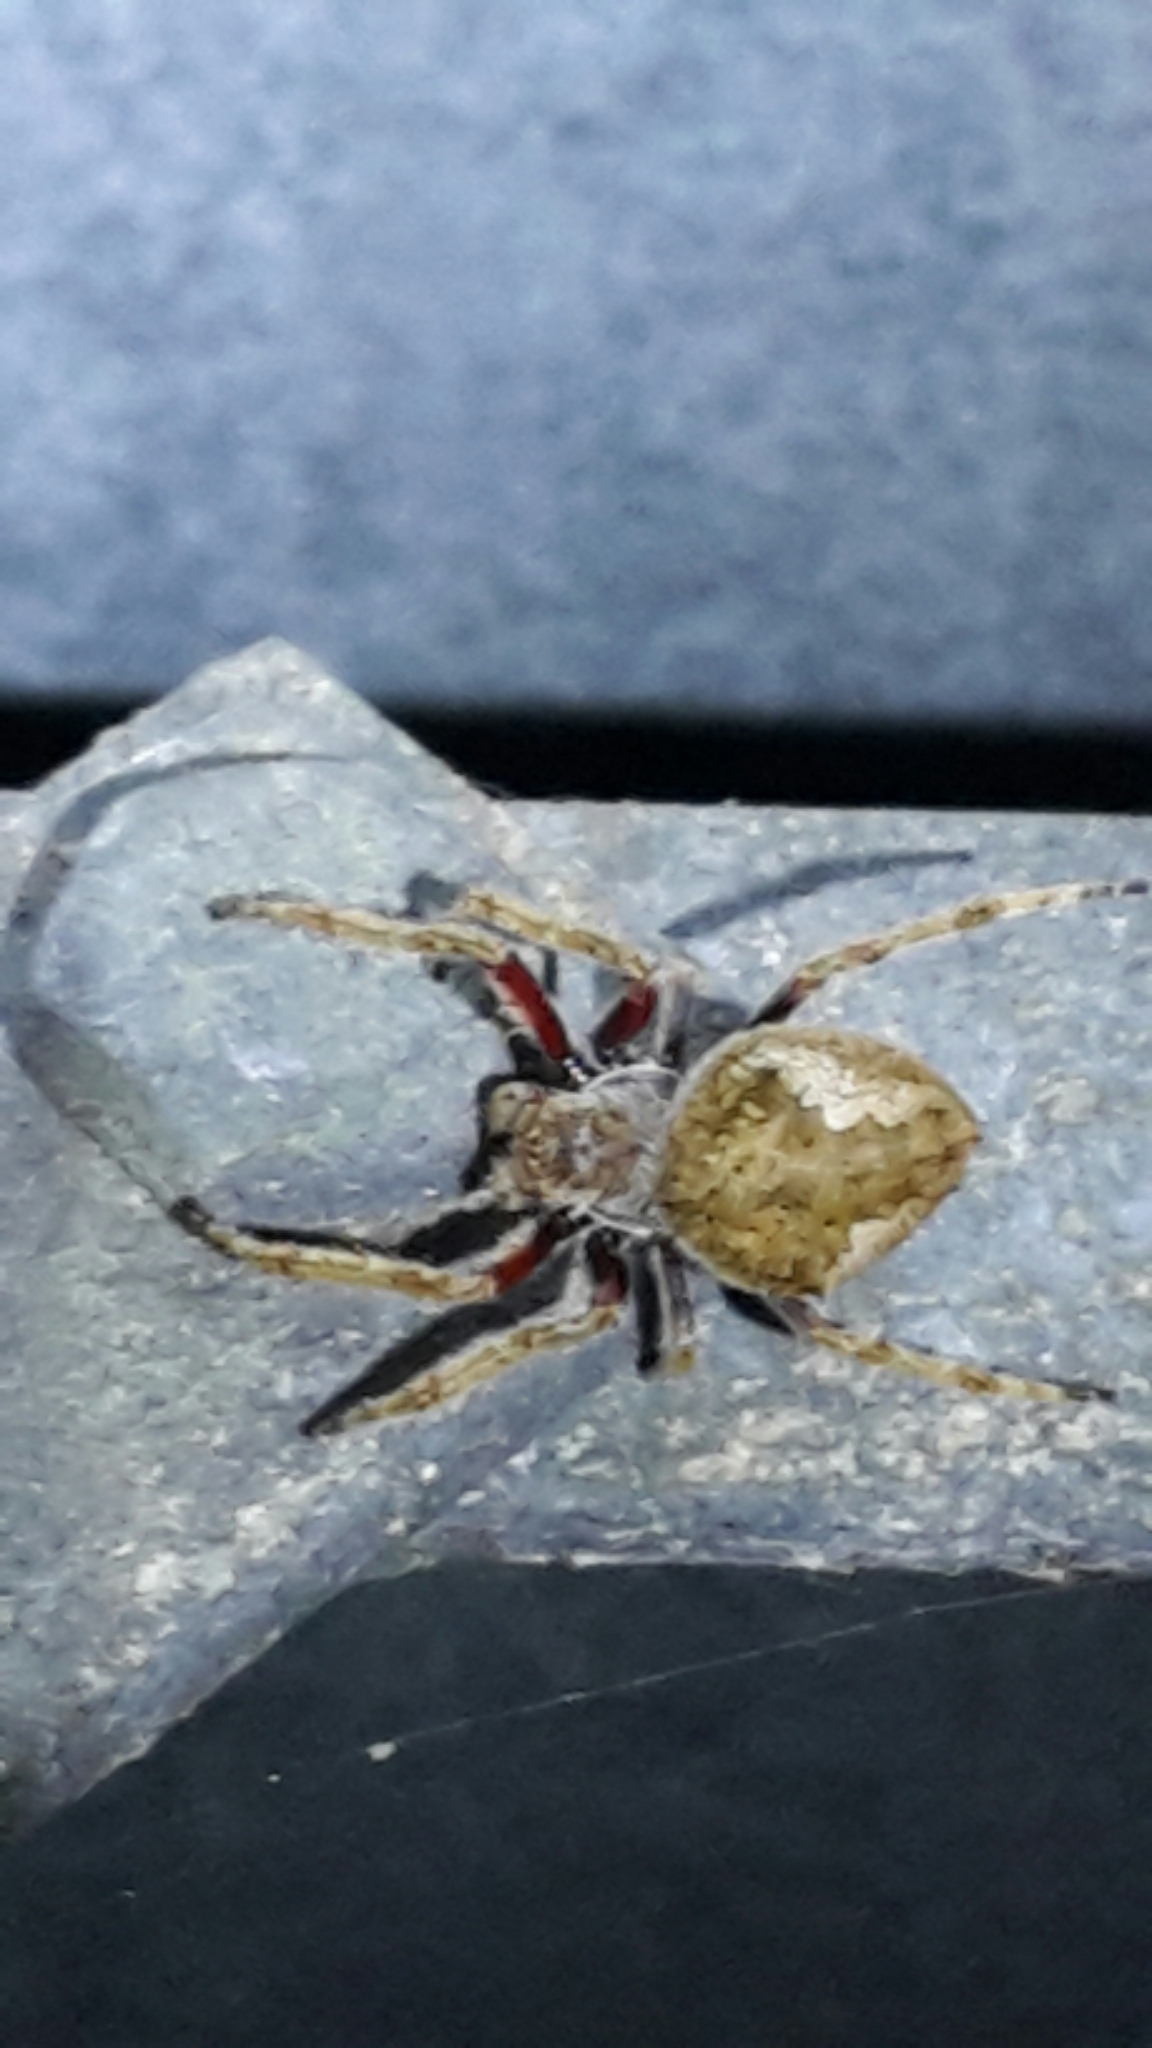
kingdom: Animalia
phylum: Arthropoda
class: Arachnida
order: Araneae
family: Araneidae
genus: Eriophora
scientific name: Eriophora pustulosa
